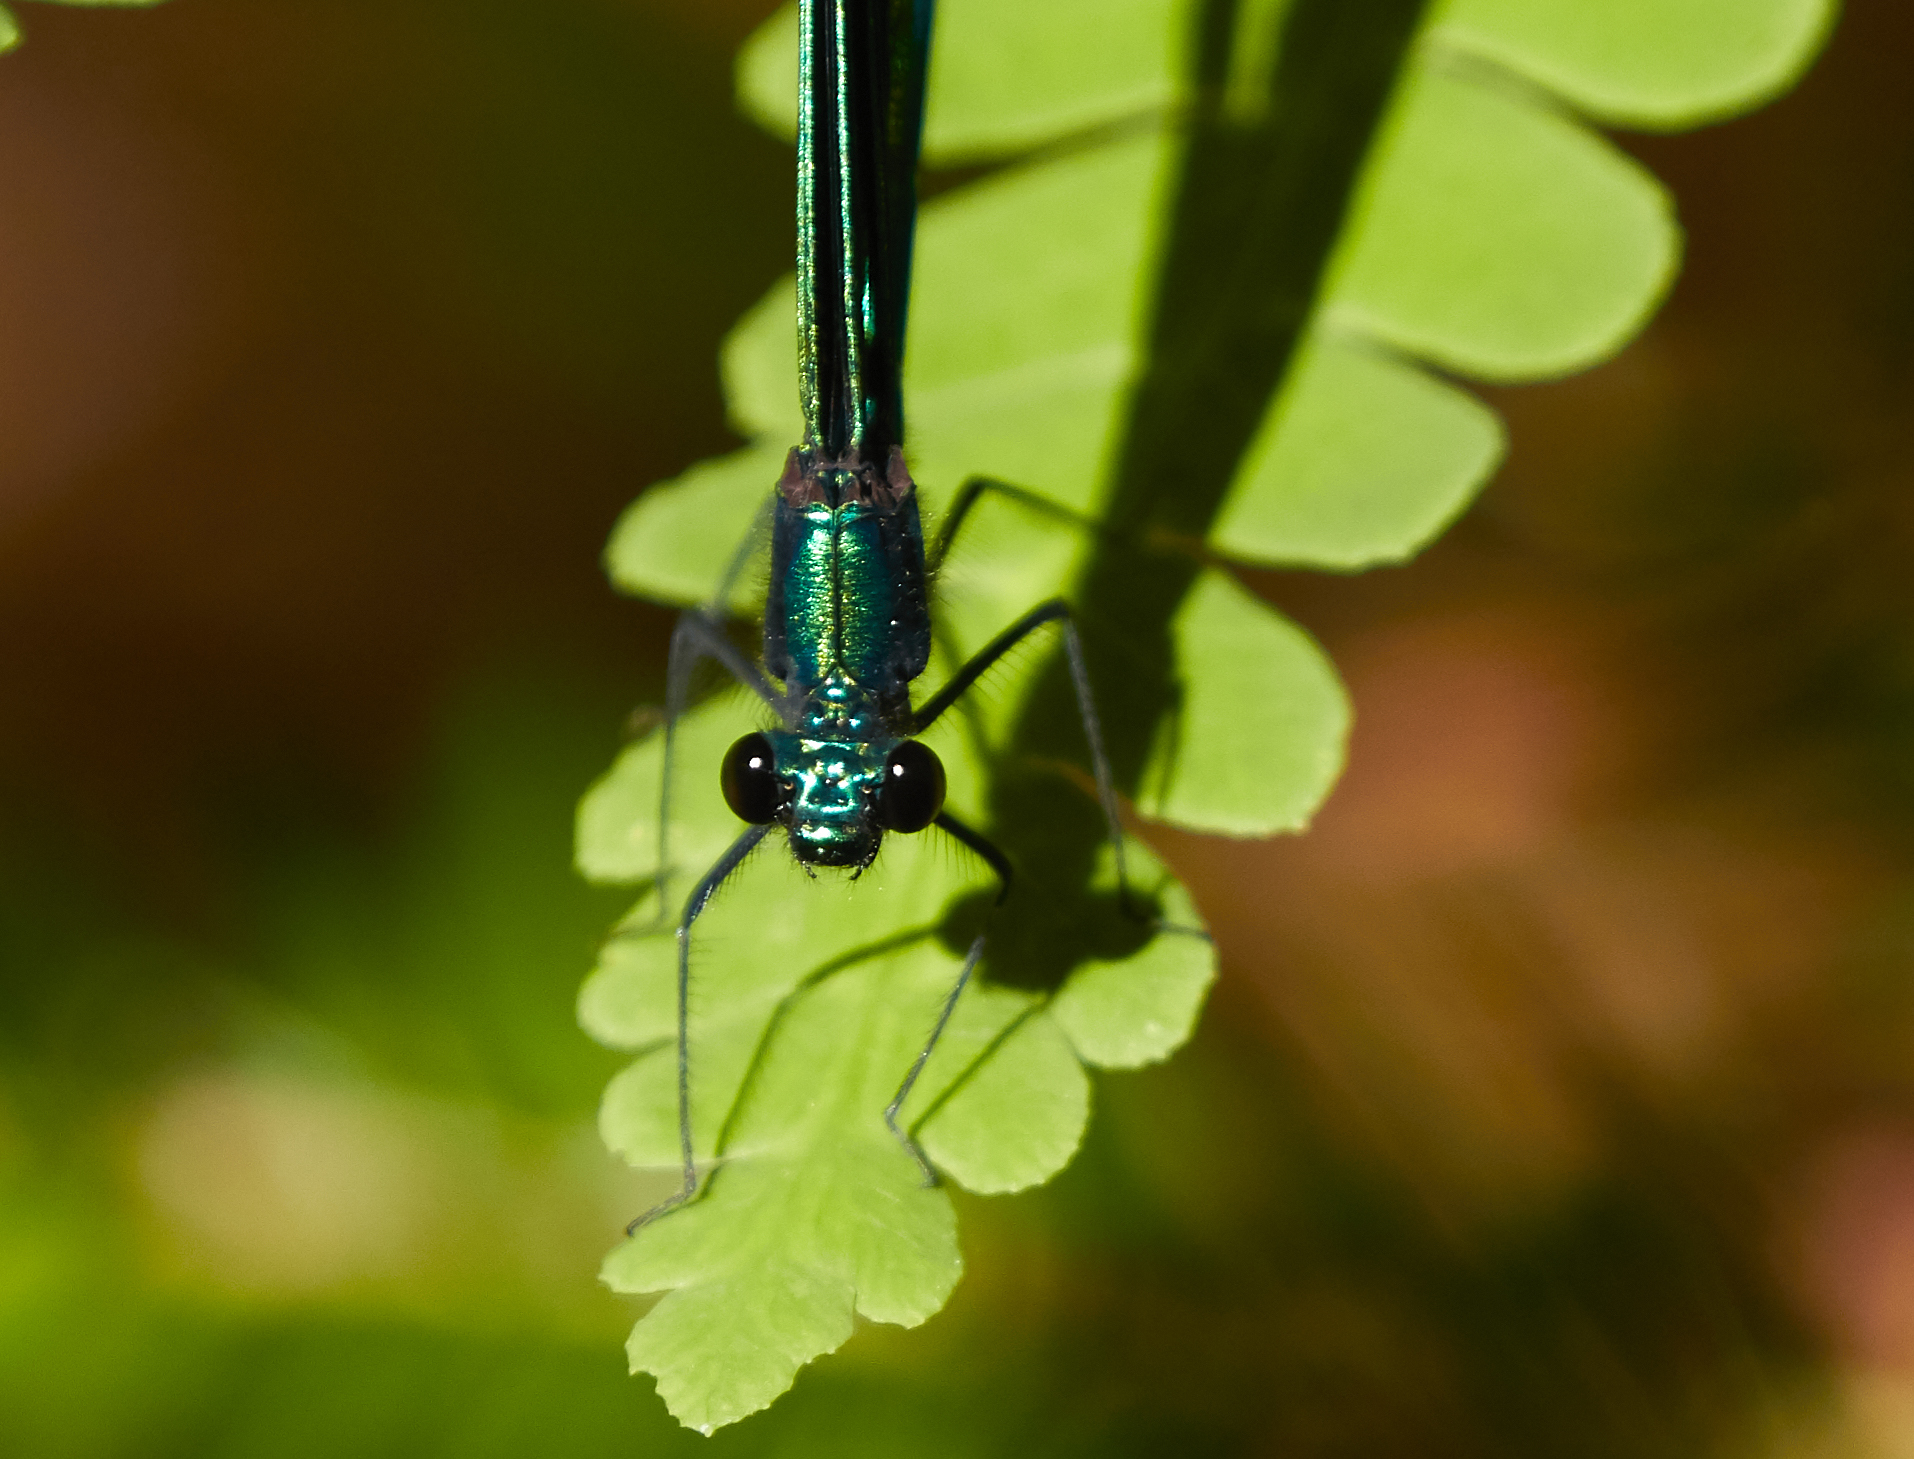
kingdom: Animalia
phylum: Arthropoda
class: Insecta
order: Odonata
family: Calopterygidae
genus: Calopteryx
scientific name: Calopteryx maculata
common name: Ebony jewelwing
